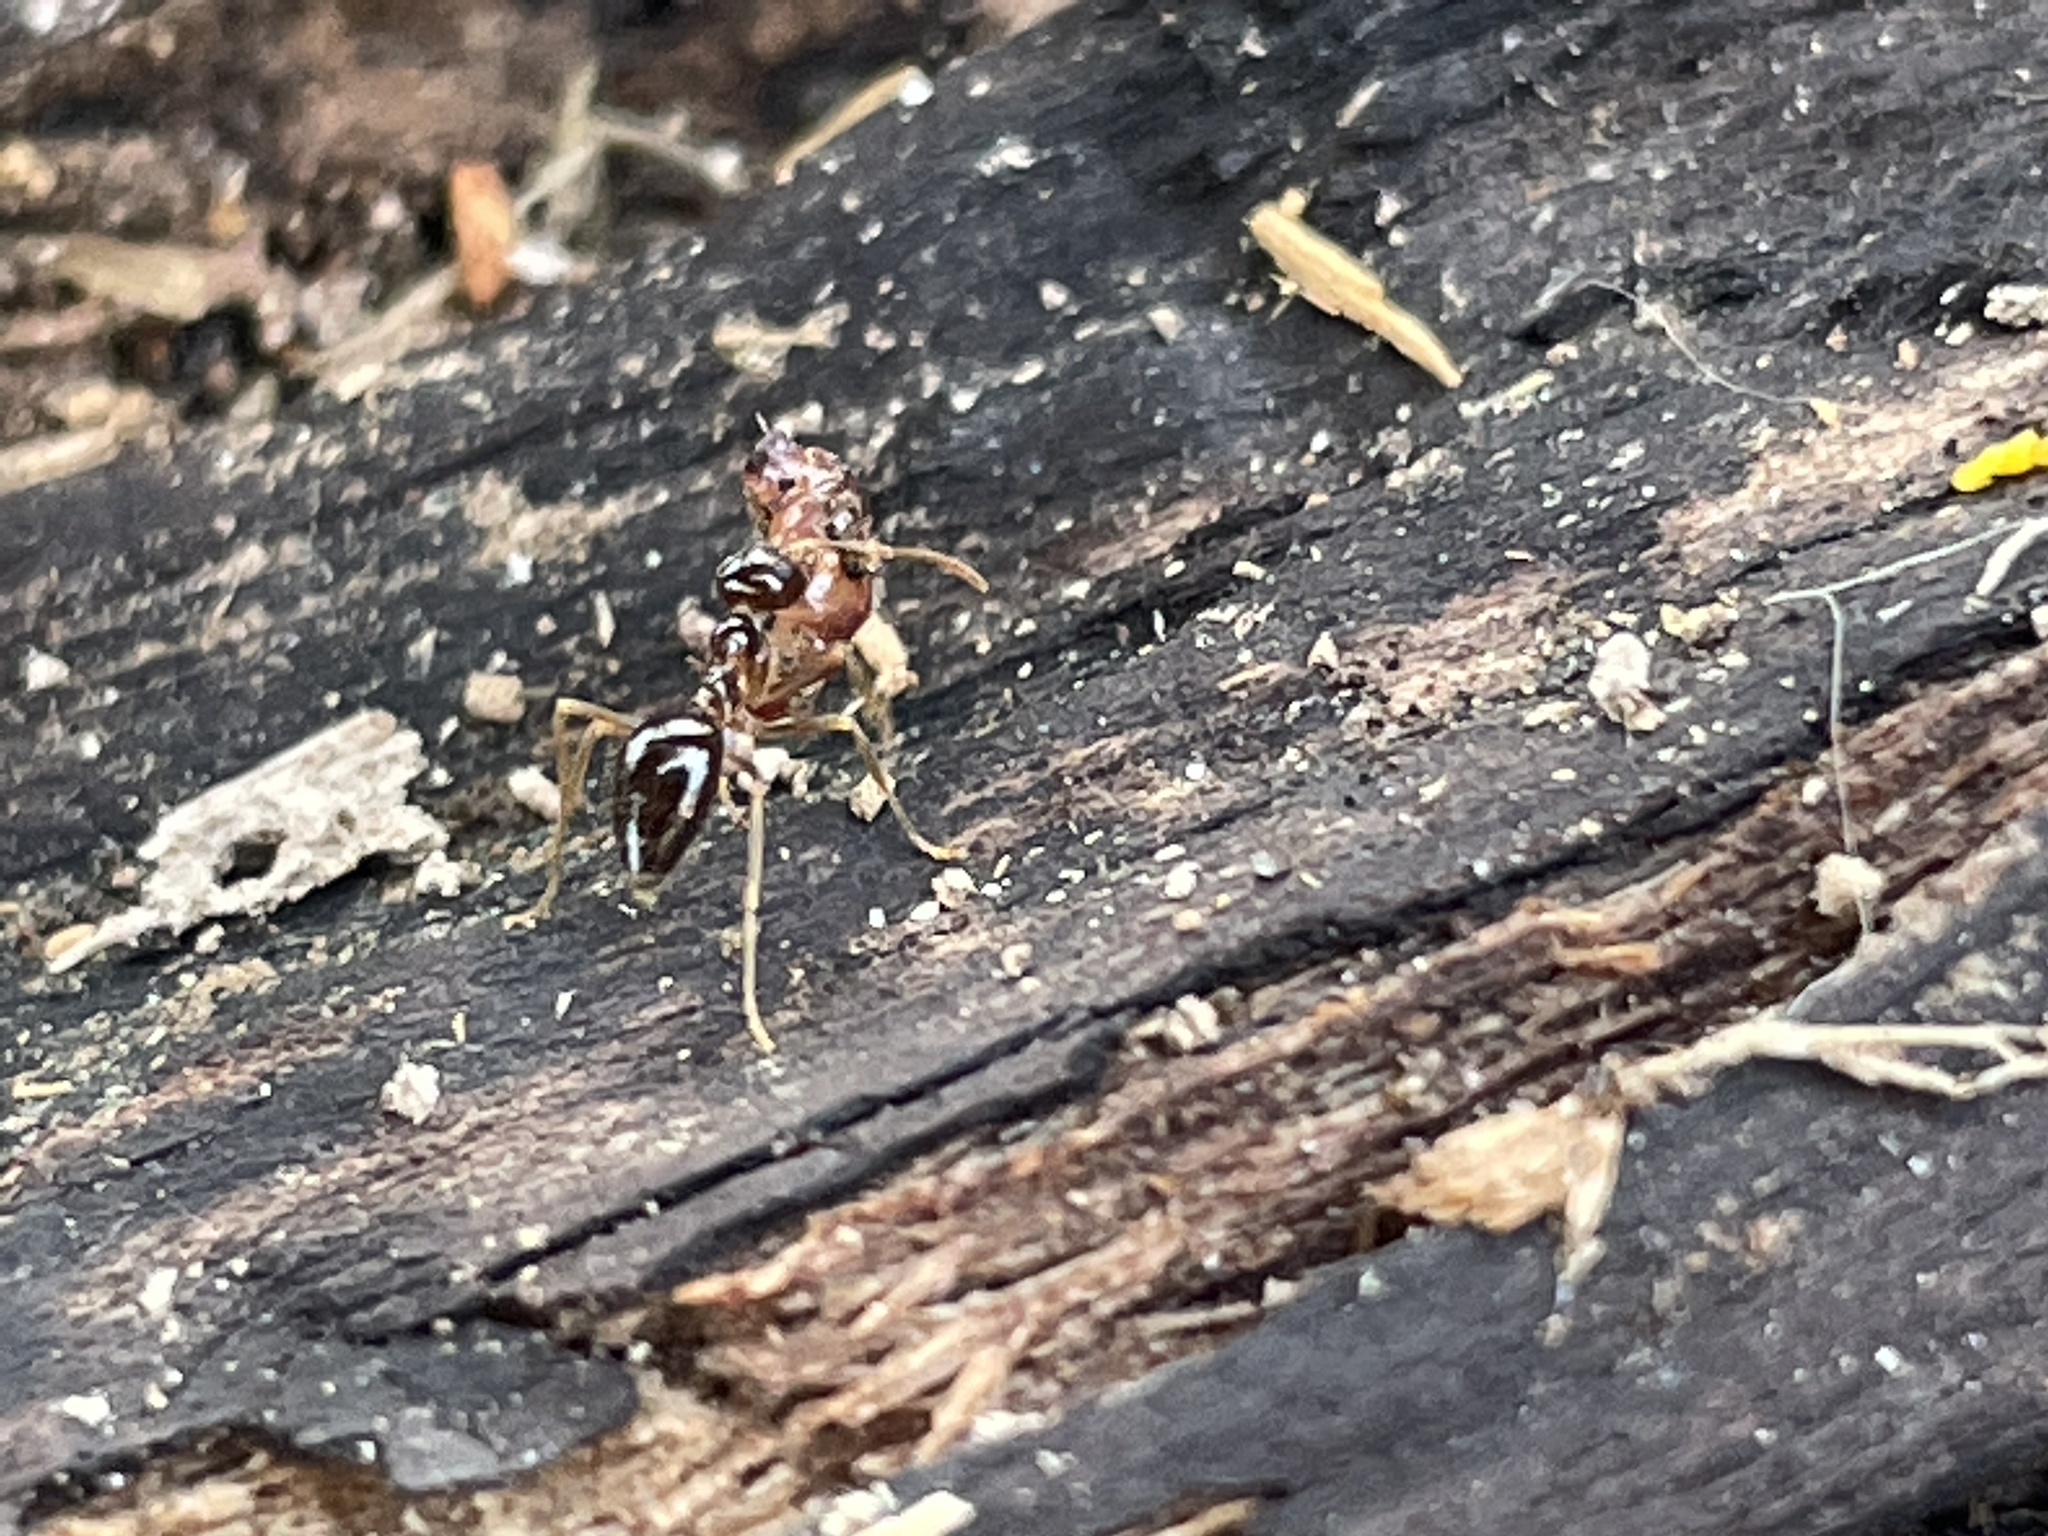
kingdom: Animalia
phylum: Arthropoda
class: Insecta
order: Hymenoptera
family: Formicidae
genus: Prenolepis
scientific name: Prenolepis imparis
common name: Small honey ant
